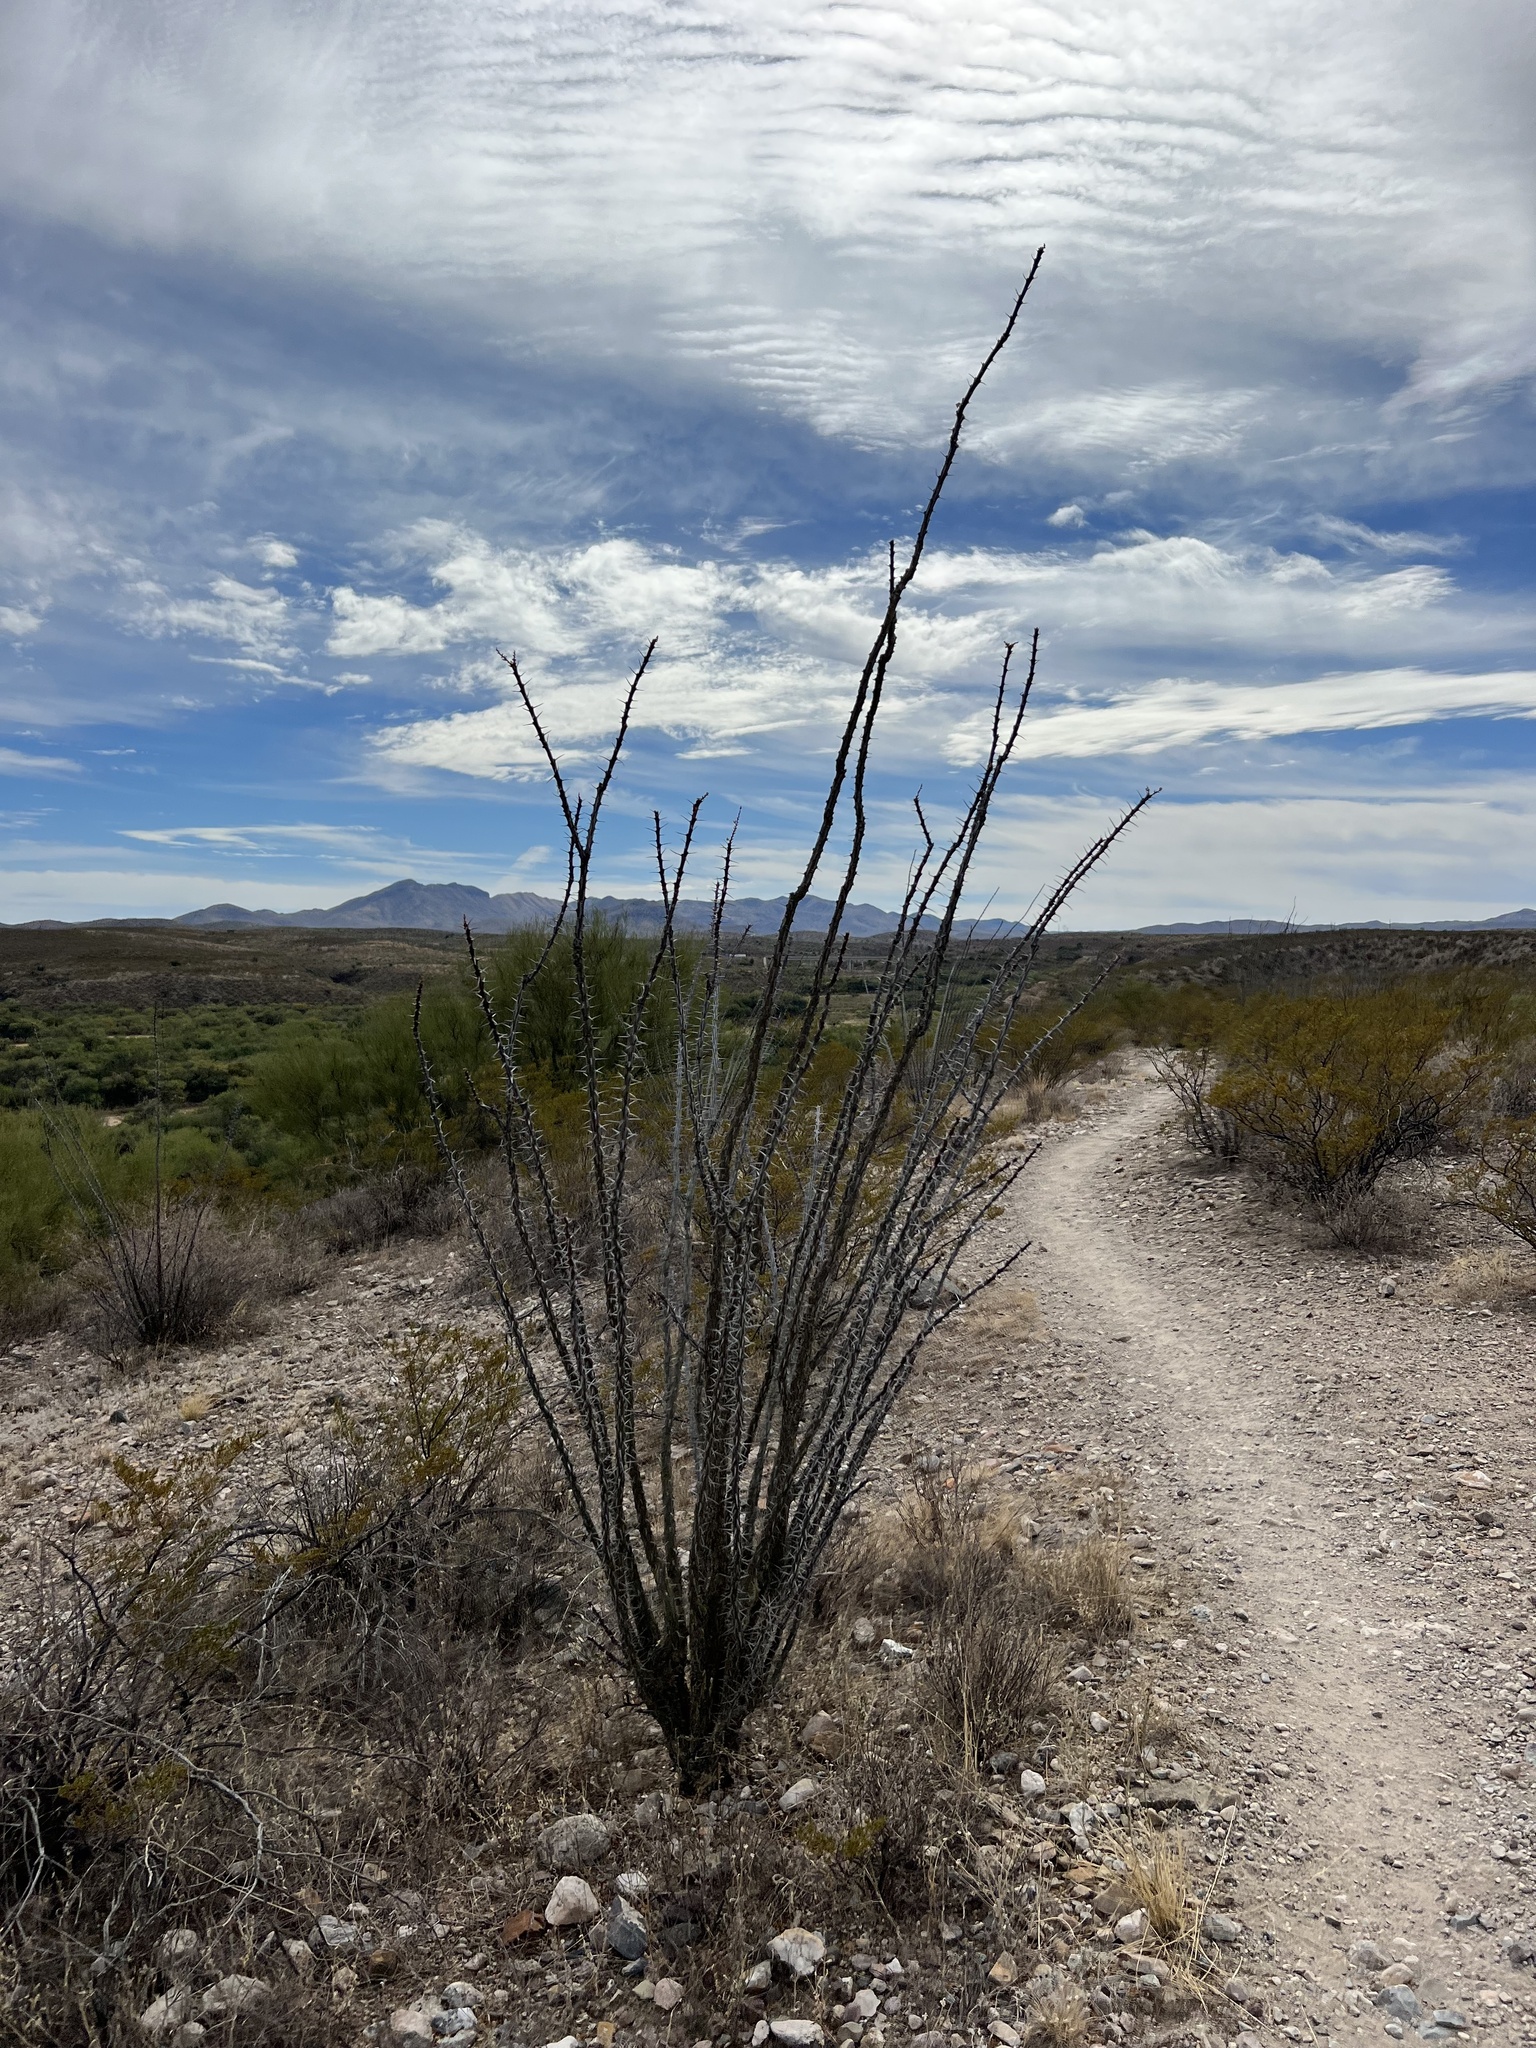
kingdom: Plantae
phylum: Tracheophyta
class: Magnoliopsida
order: Ericales
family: Fouquieriaceae
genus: Fouquieria
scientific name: Fouquieria splendens
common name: Vine-cactus
